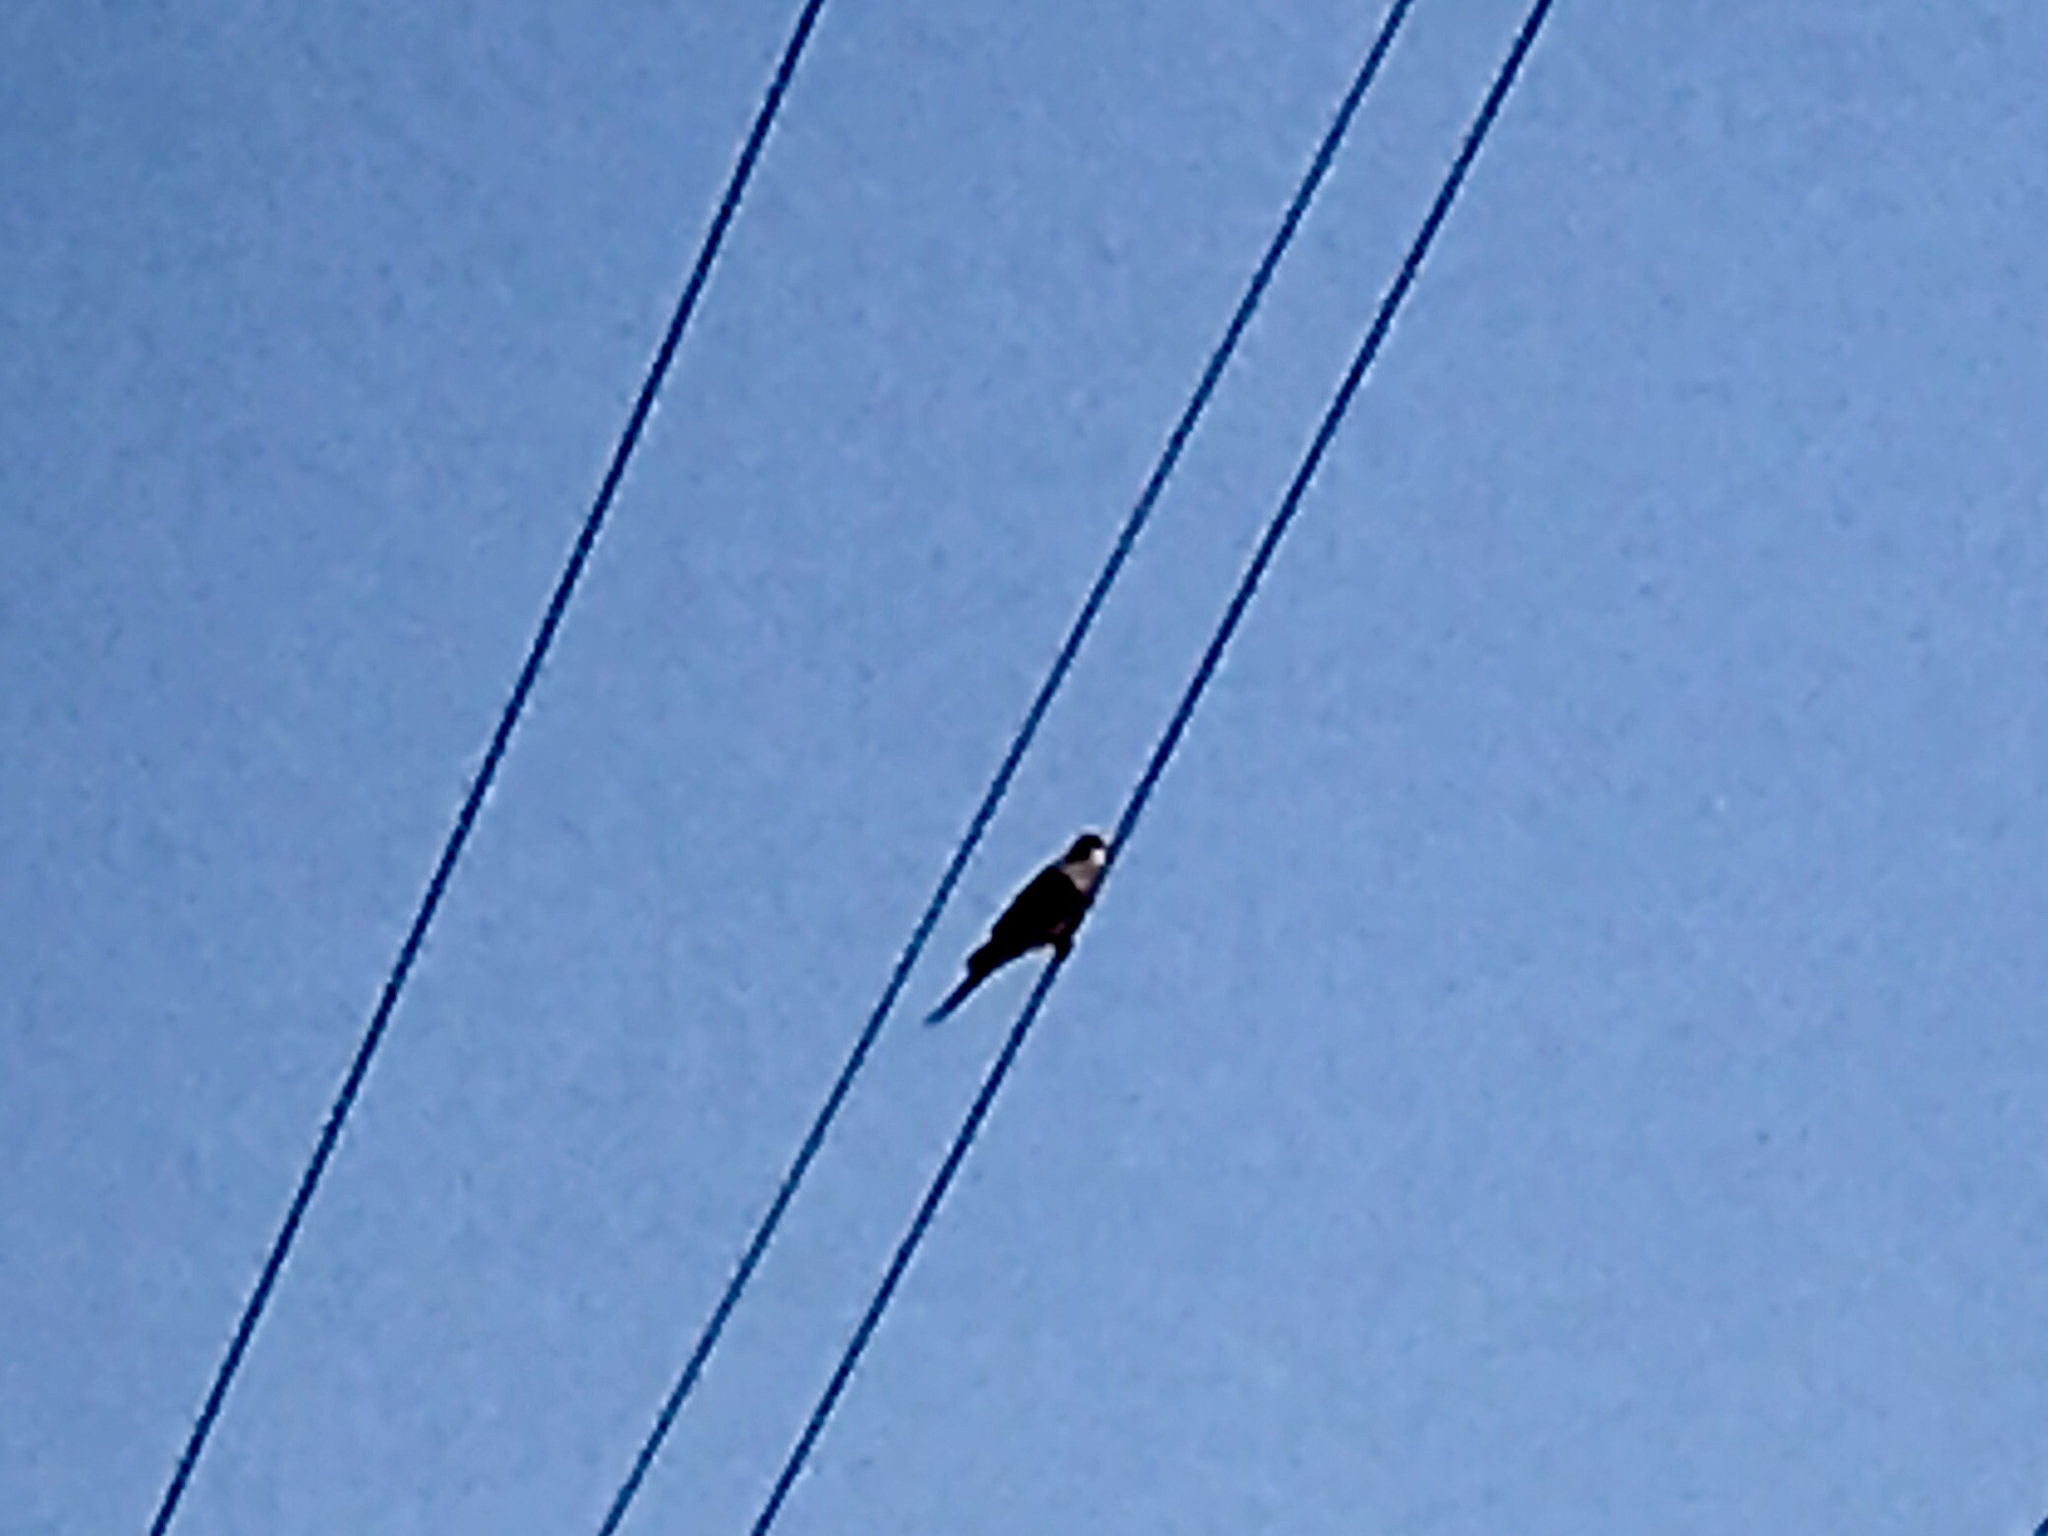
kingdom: Animalia
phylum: Chordata
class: Aves
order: Columbiformes
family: Columbidae
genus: Zenaida
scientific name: Zenaida macroura
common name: Mourning dove
